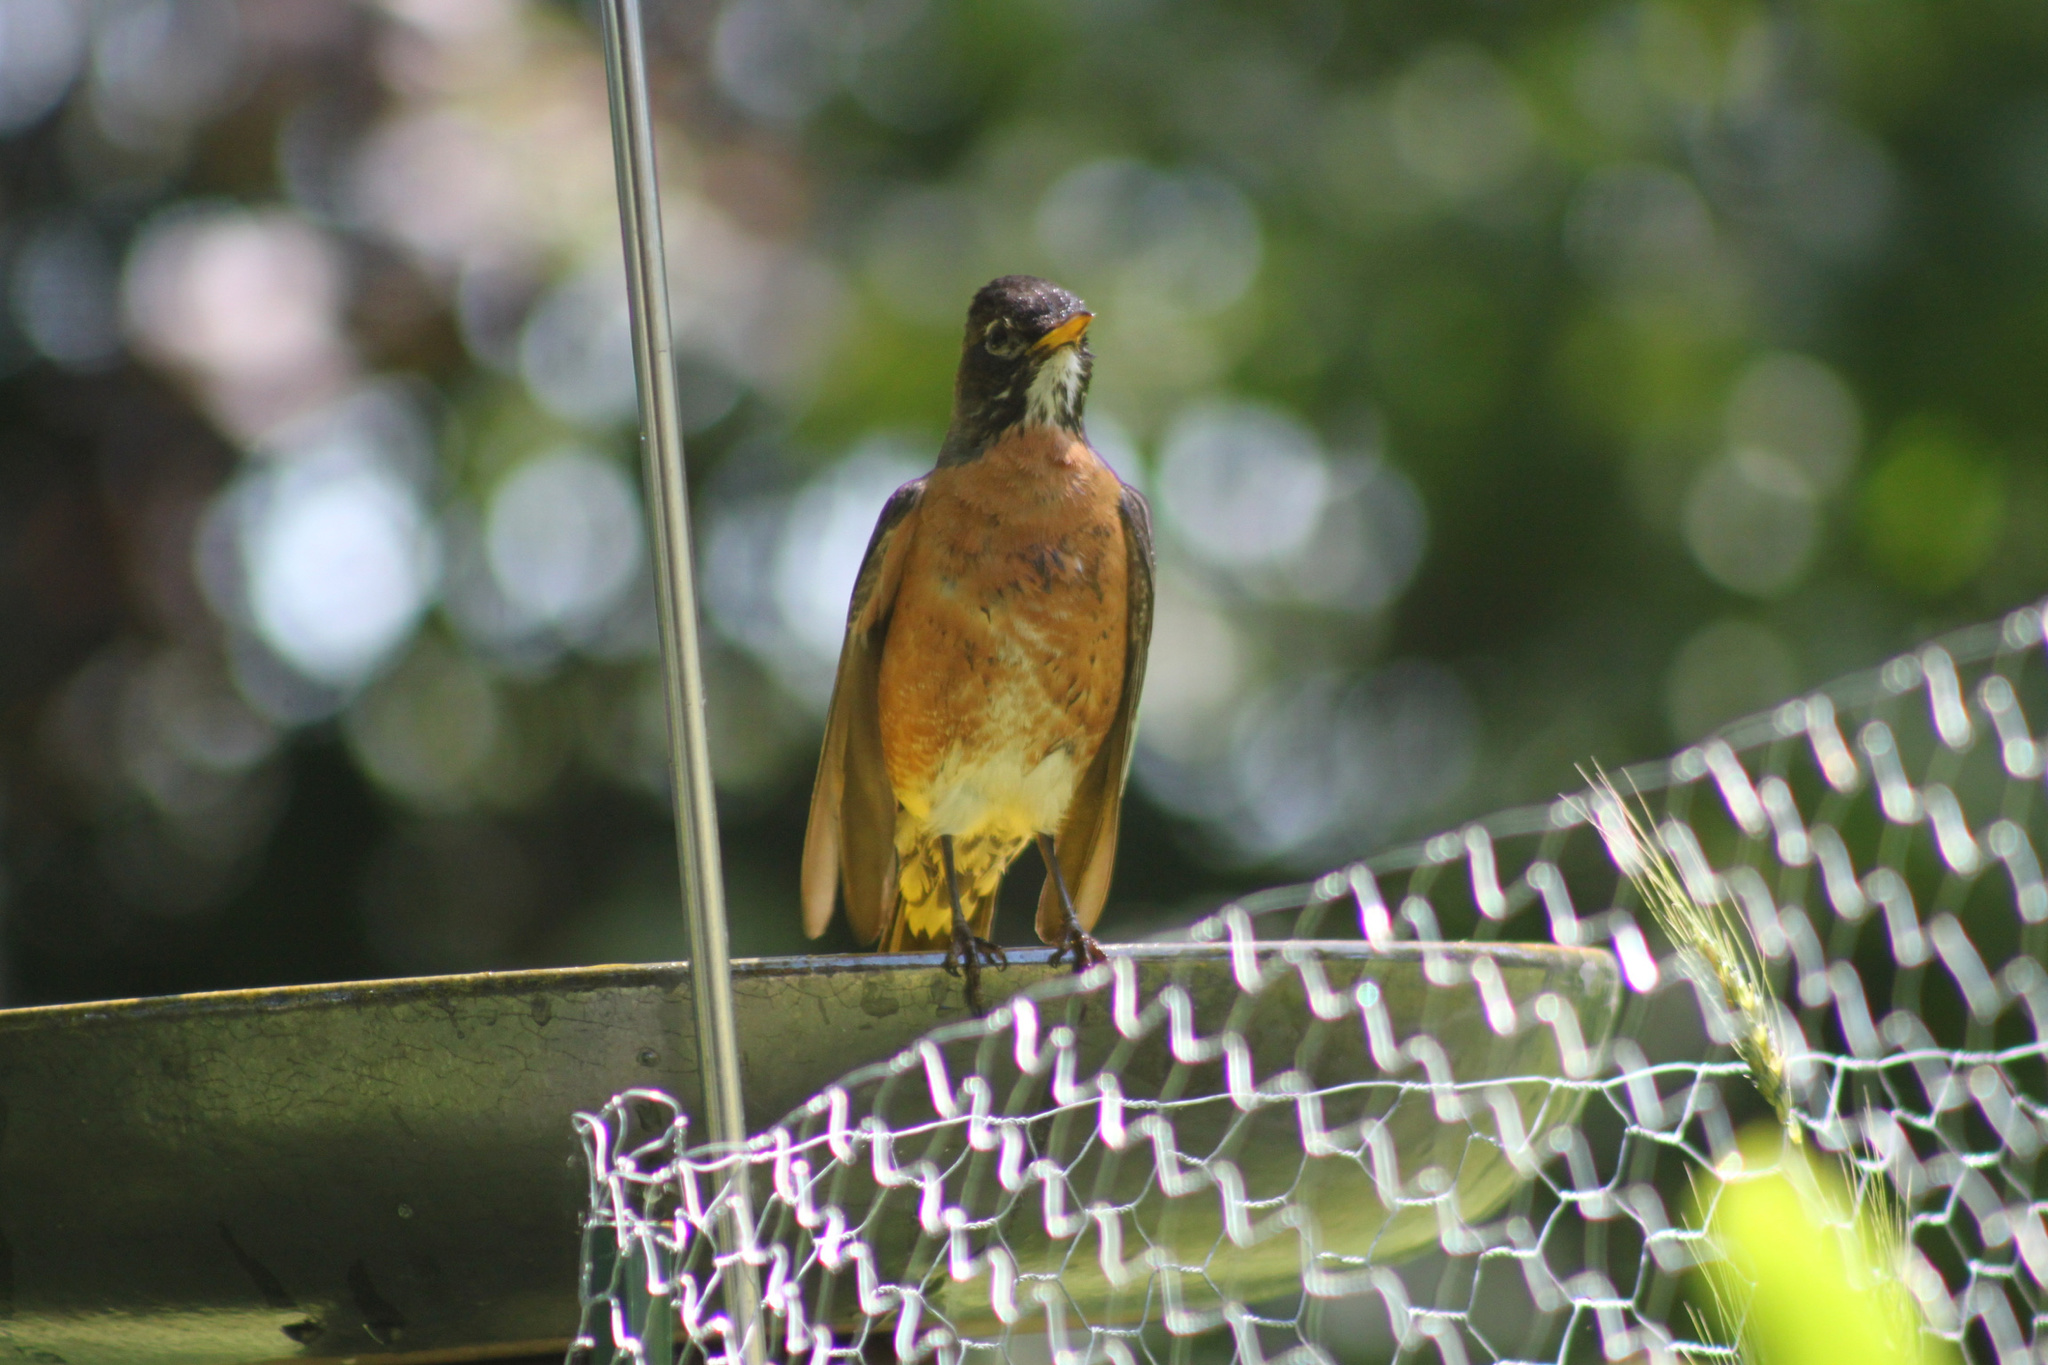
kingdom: Animalia
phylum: Chordata
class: Aves
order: Passeriformes
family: Turdidae
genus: Turdus
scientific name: Turdus migratorius
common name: American robin
